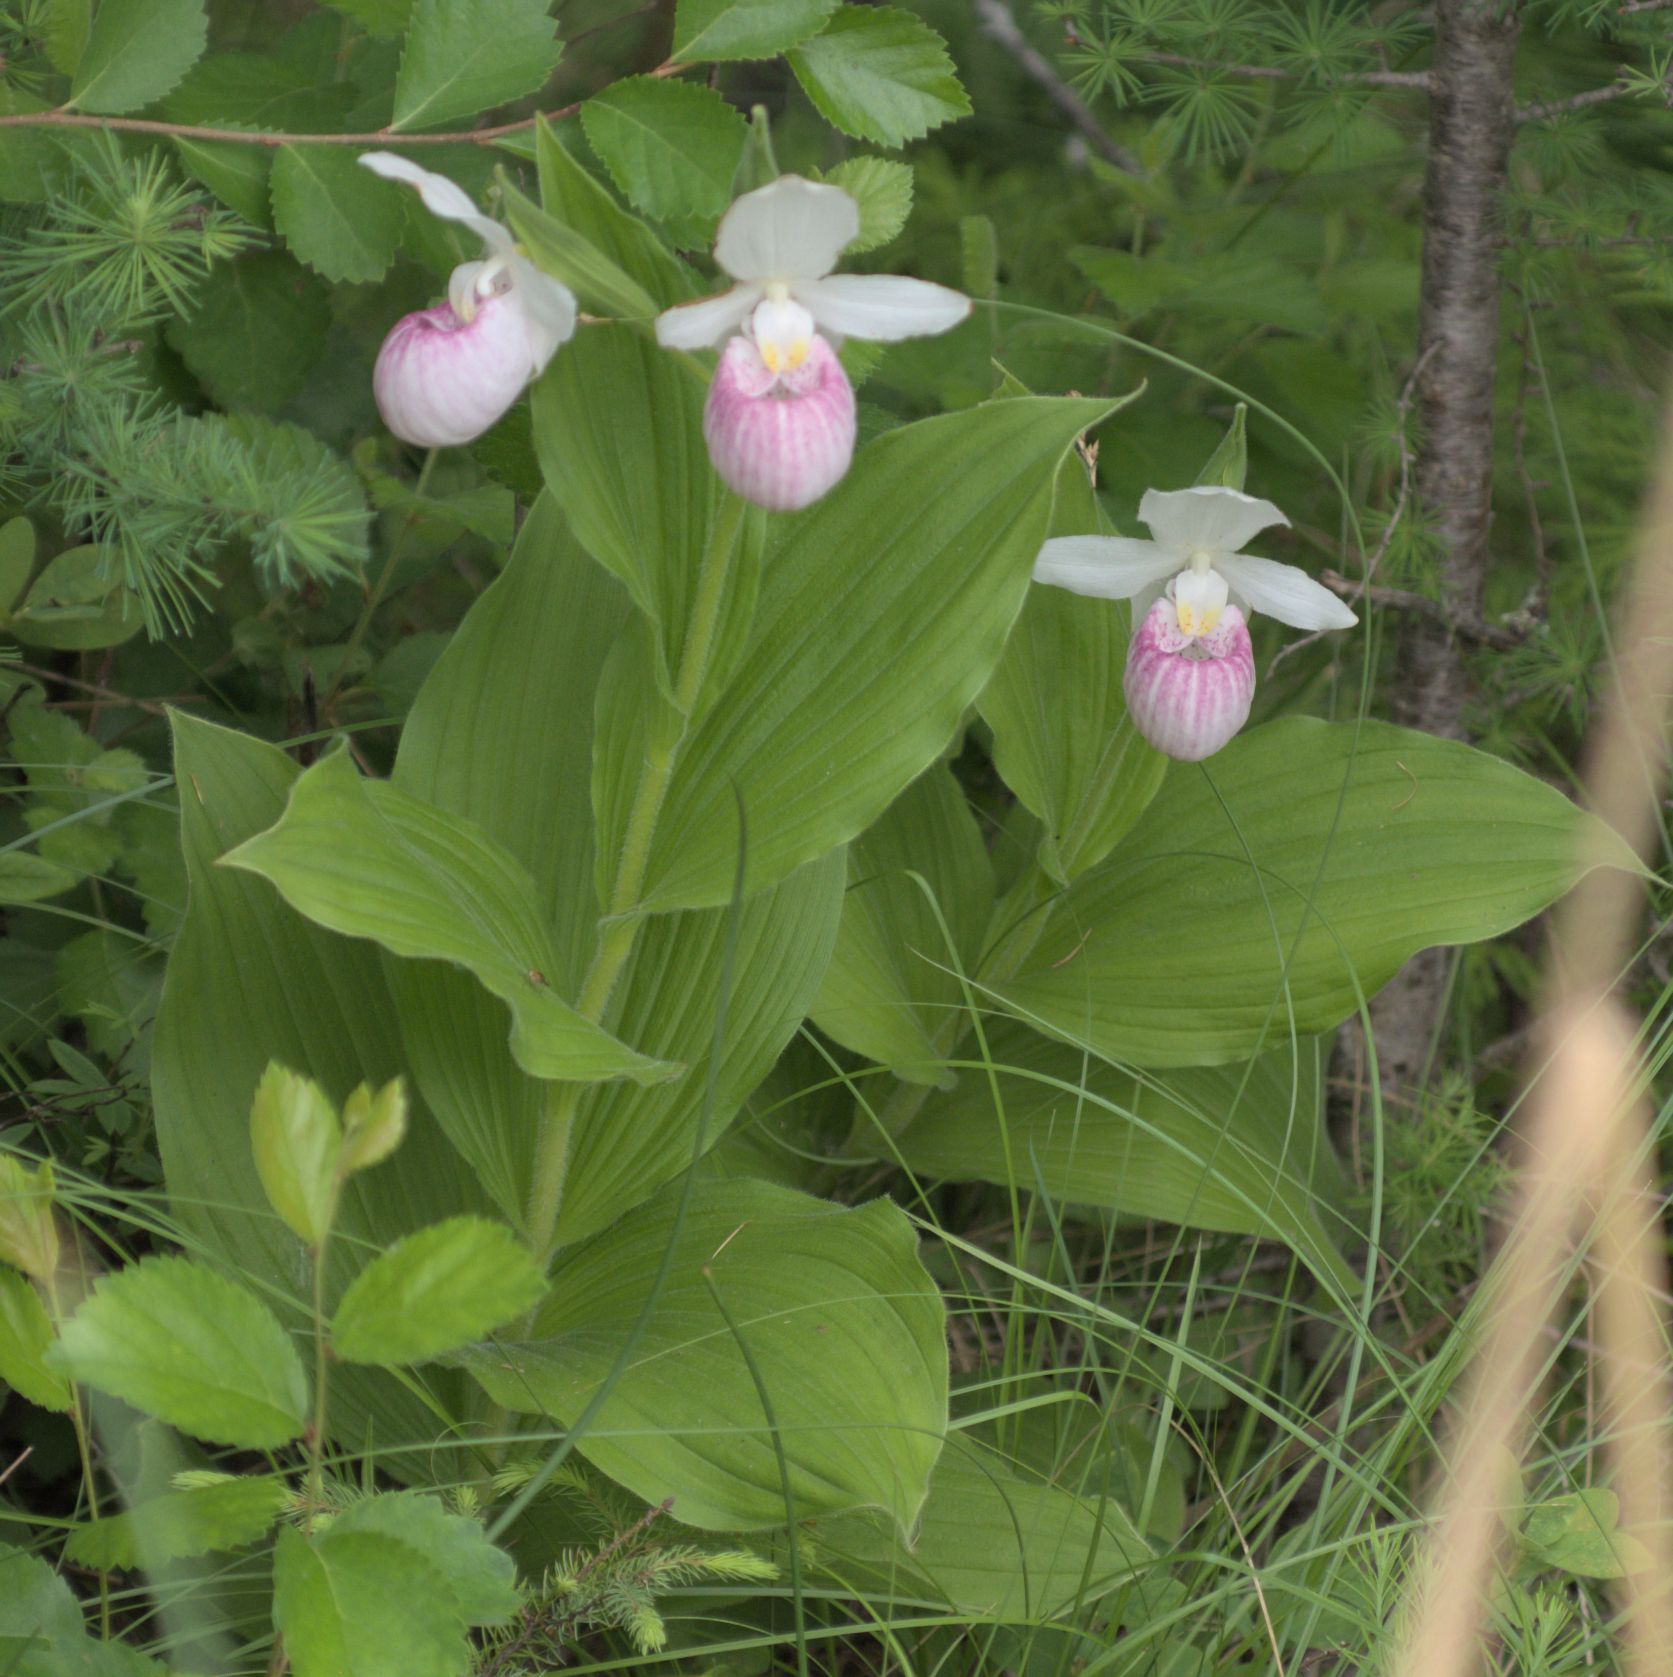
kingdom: Plantae
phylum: Tracheophyta
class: Liliopsida
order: Asparagales
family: Orchidaceae
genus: Cypripedium
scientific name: Cypripedium reginae
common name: Queen lady's-slipper
